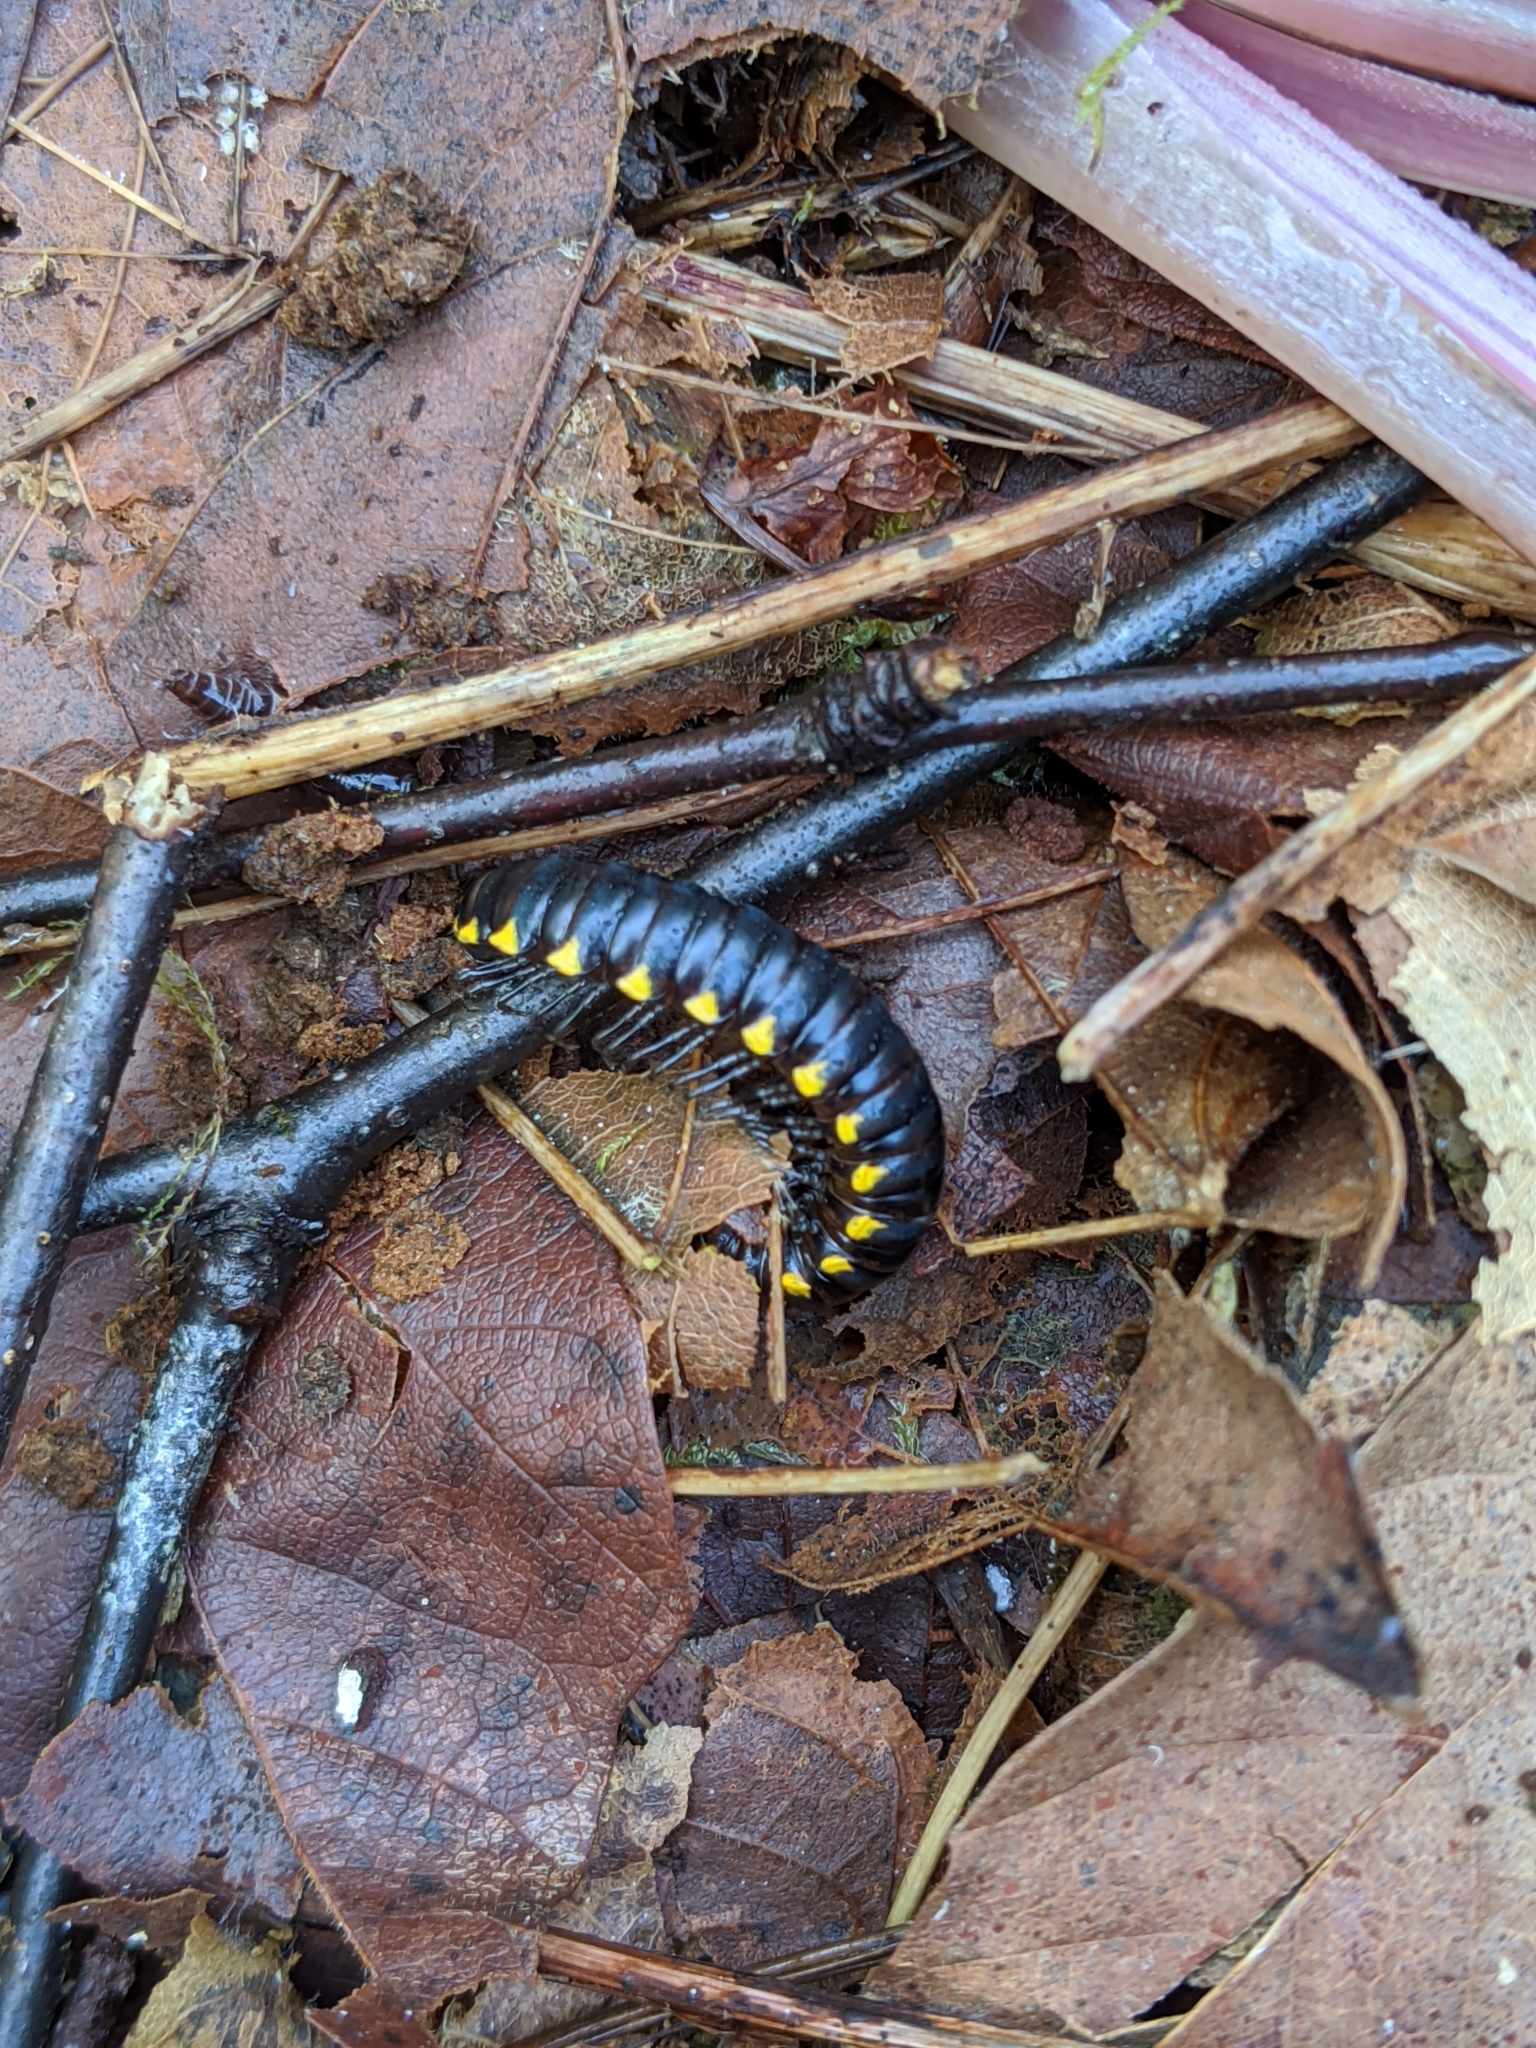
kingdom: Animalia
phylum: Arthropoda
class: Diplopoda
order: Polydesmida
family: Xystodesmidae
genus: Harpaphe
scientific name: Harpaphe haydeniana
